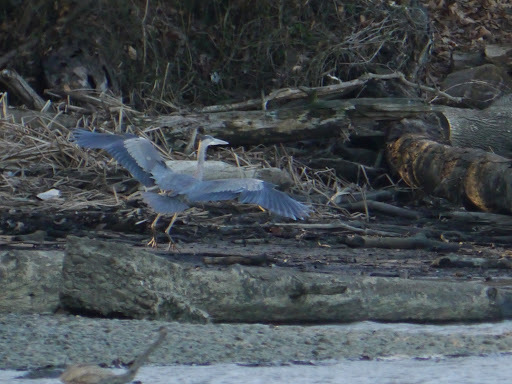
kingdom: Animalia
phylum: Chordata
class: Aves
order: Pelecaniformes
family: Ardeidae
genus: Ardea
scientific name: Ardea herodias
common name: Great blue heron
